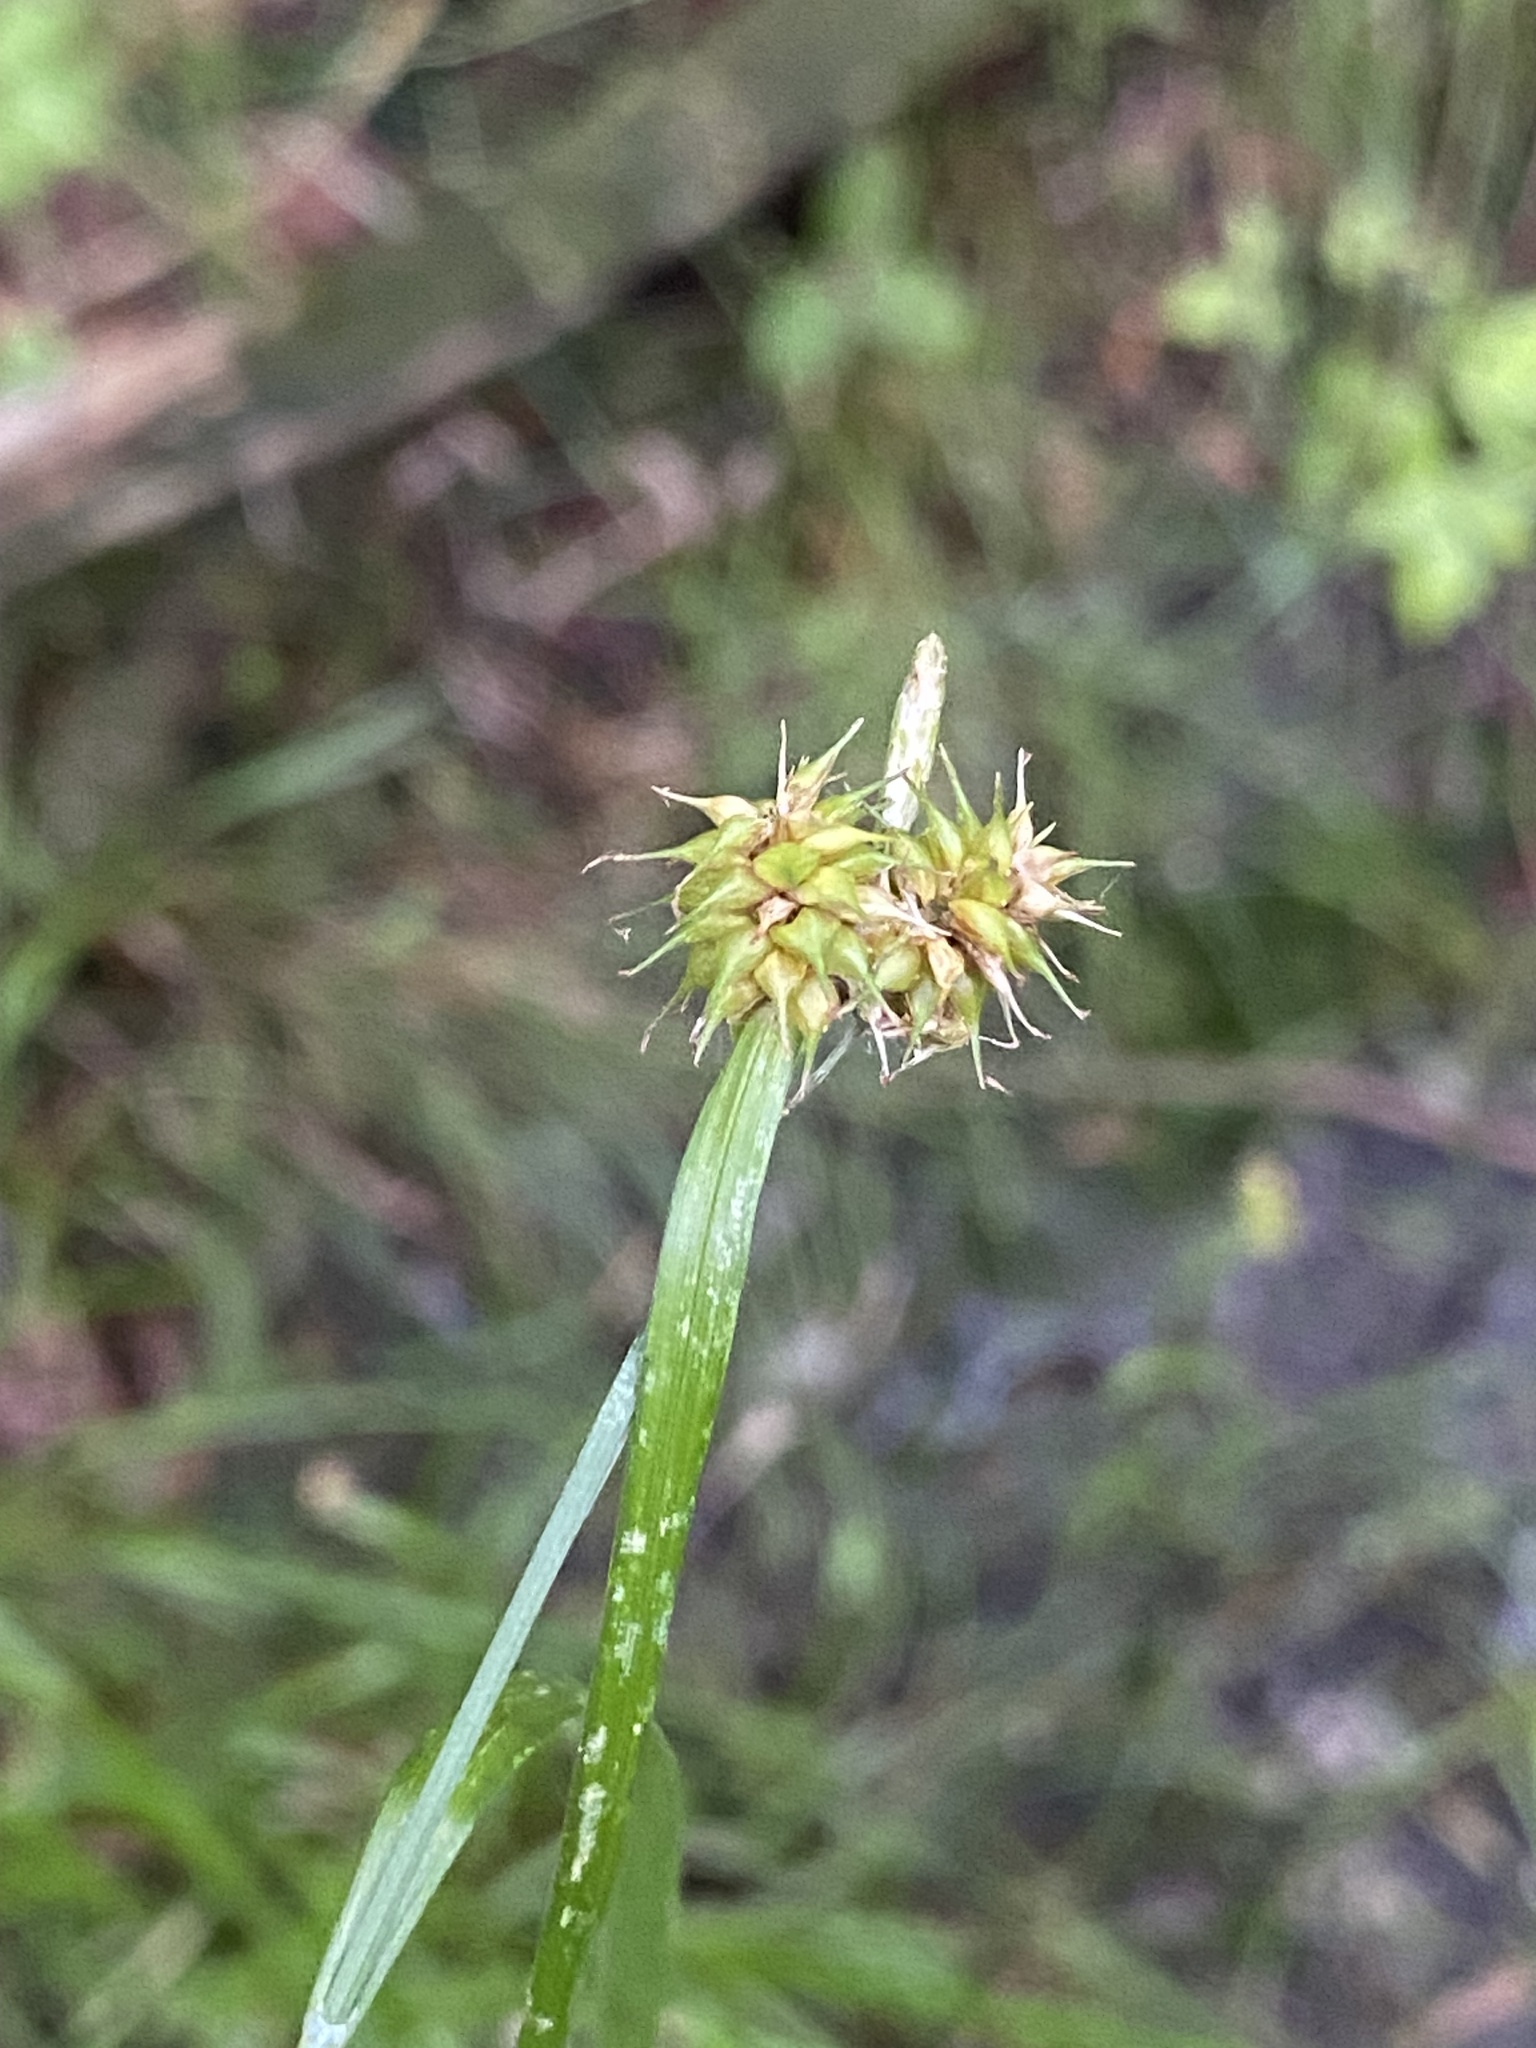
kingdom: Plantae
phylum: Tracheophyta
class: Liliopsida
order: Poales
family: Cyperaceae
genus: Carex
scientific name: Carex flava
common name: Large yellow-sedge
